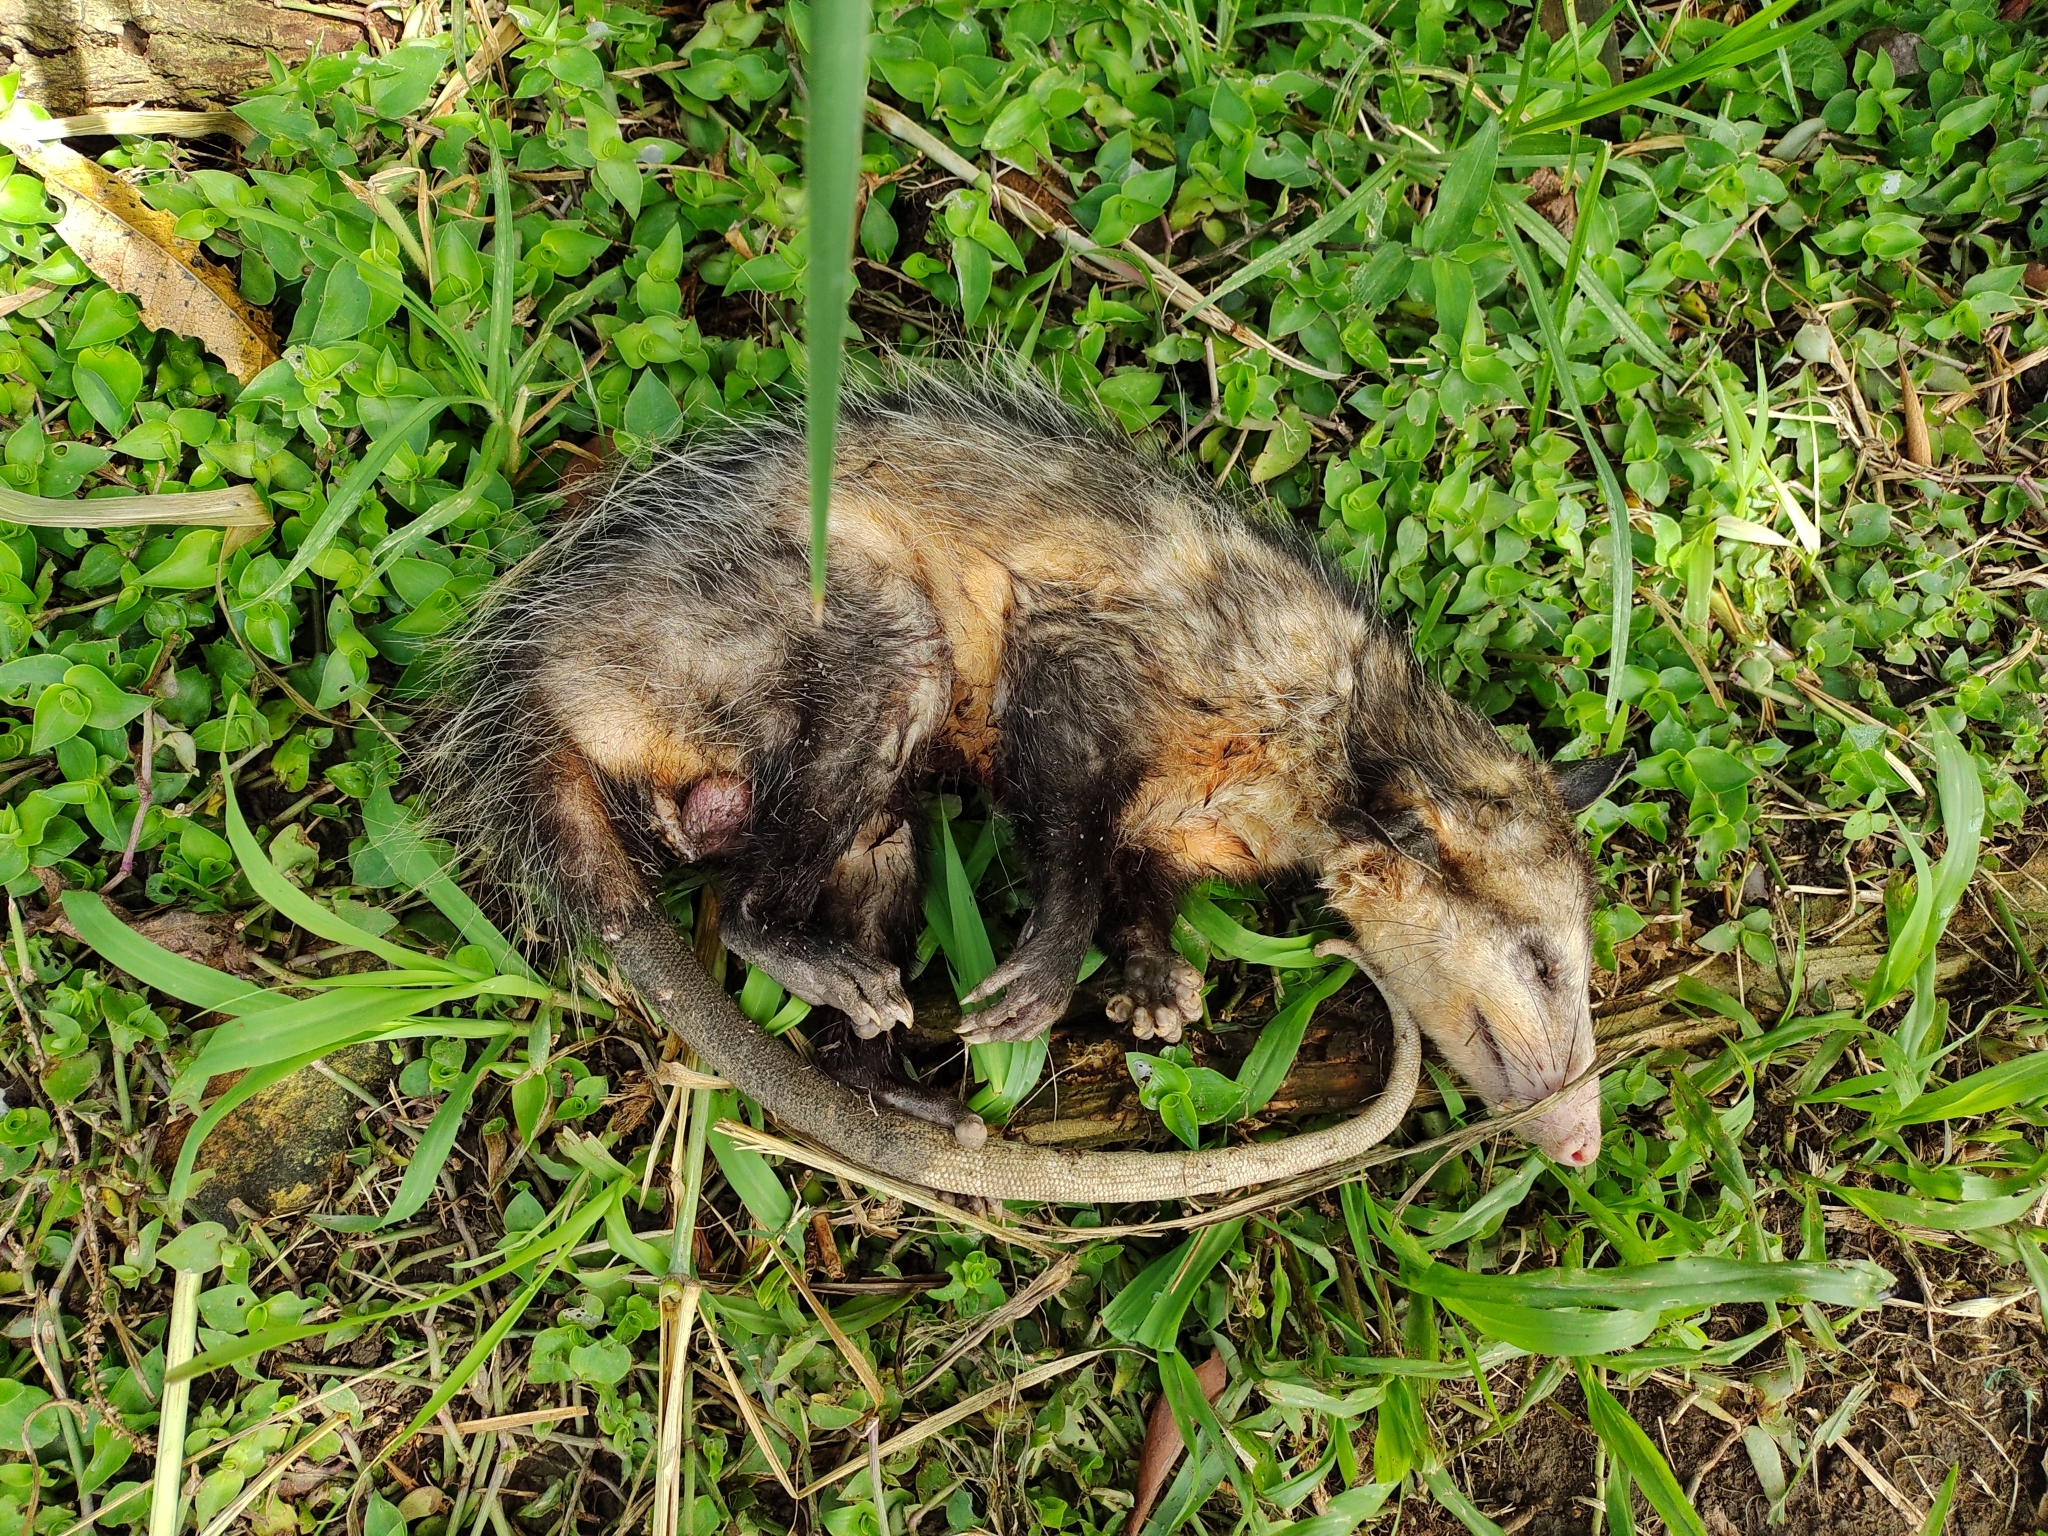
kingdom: Animalia
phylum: Chordata
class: Mammalia
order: Didelphimorphia
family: Didelphidae
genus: Didelphis
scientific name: Didelphis marsupialis
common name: Common opossum
